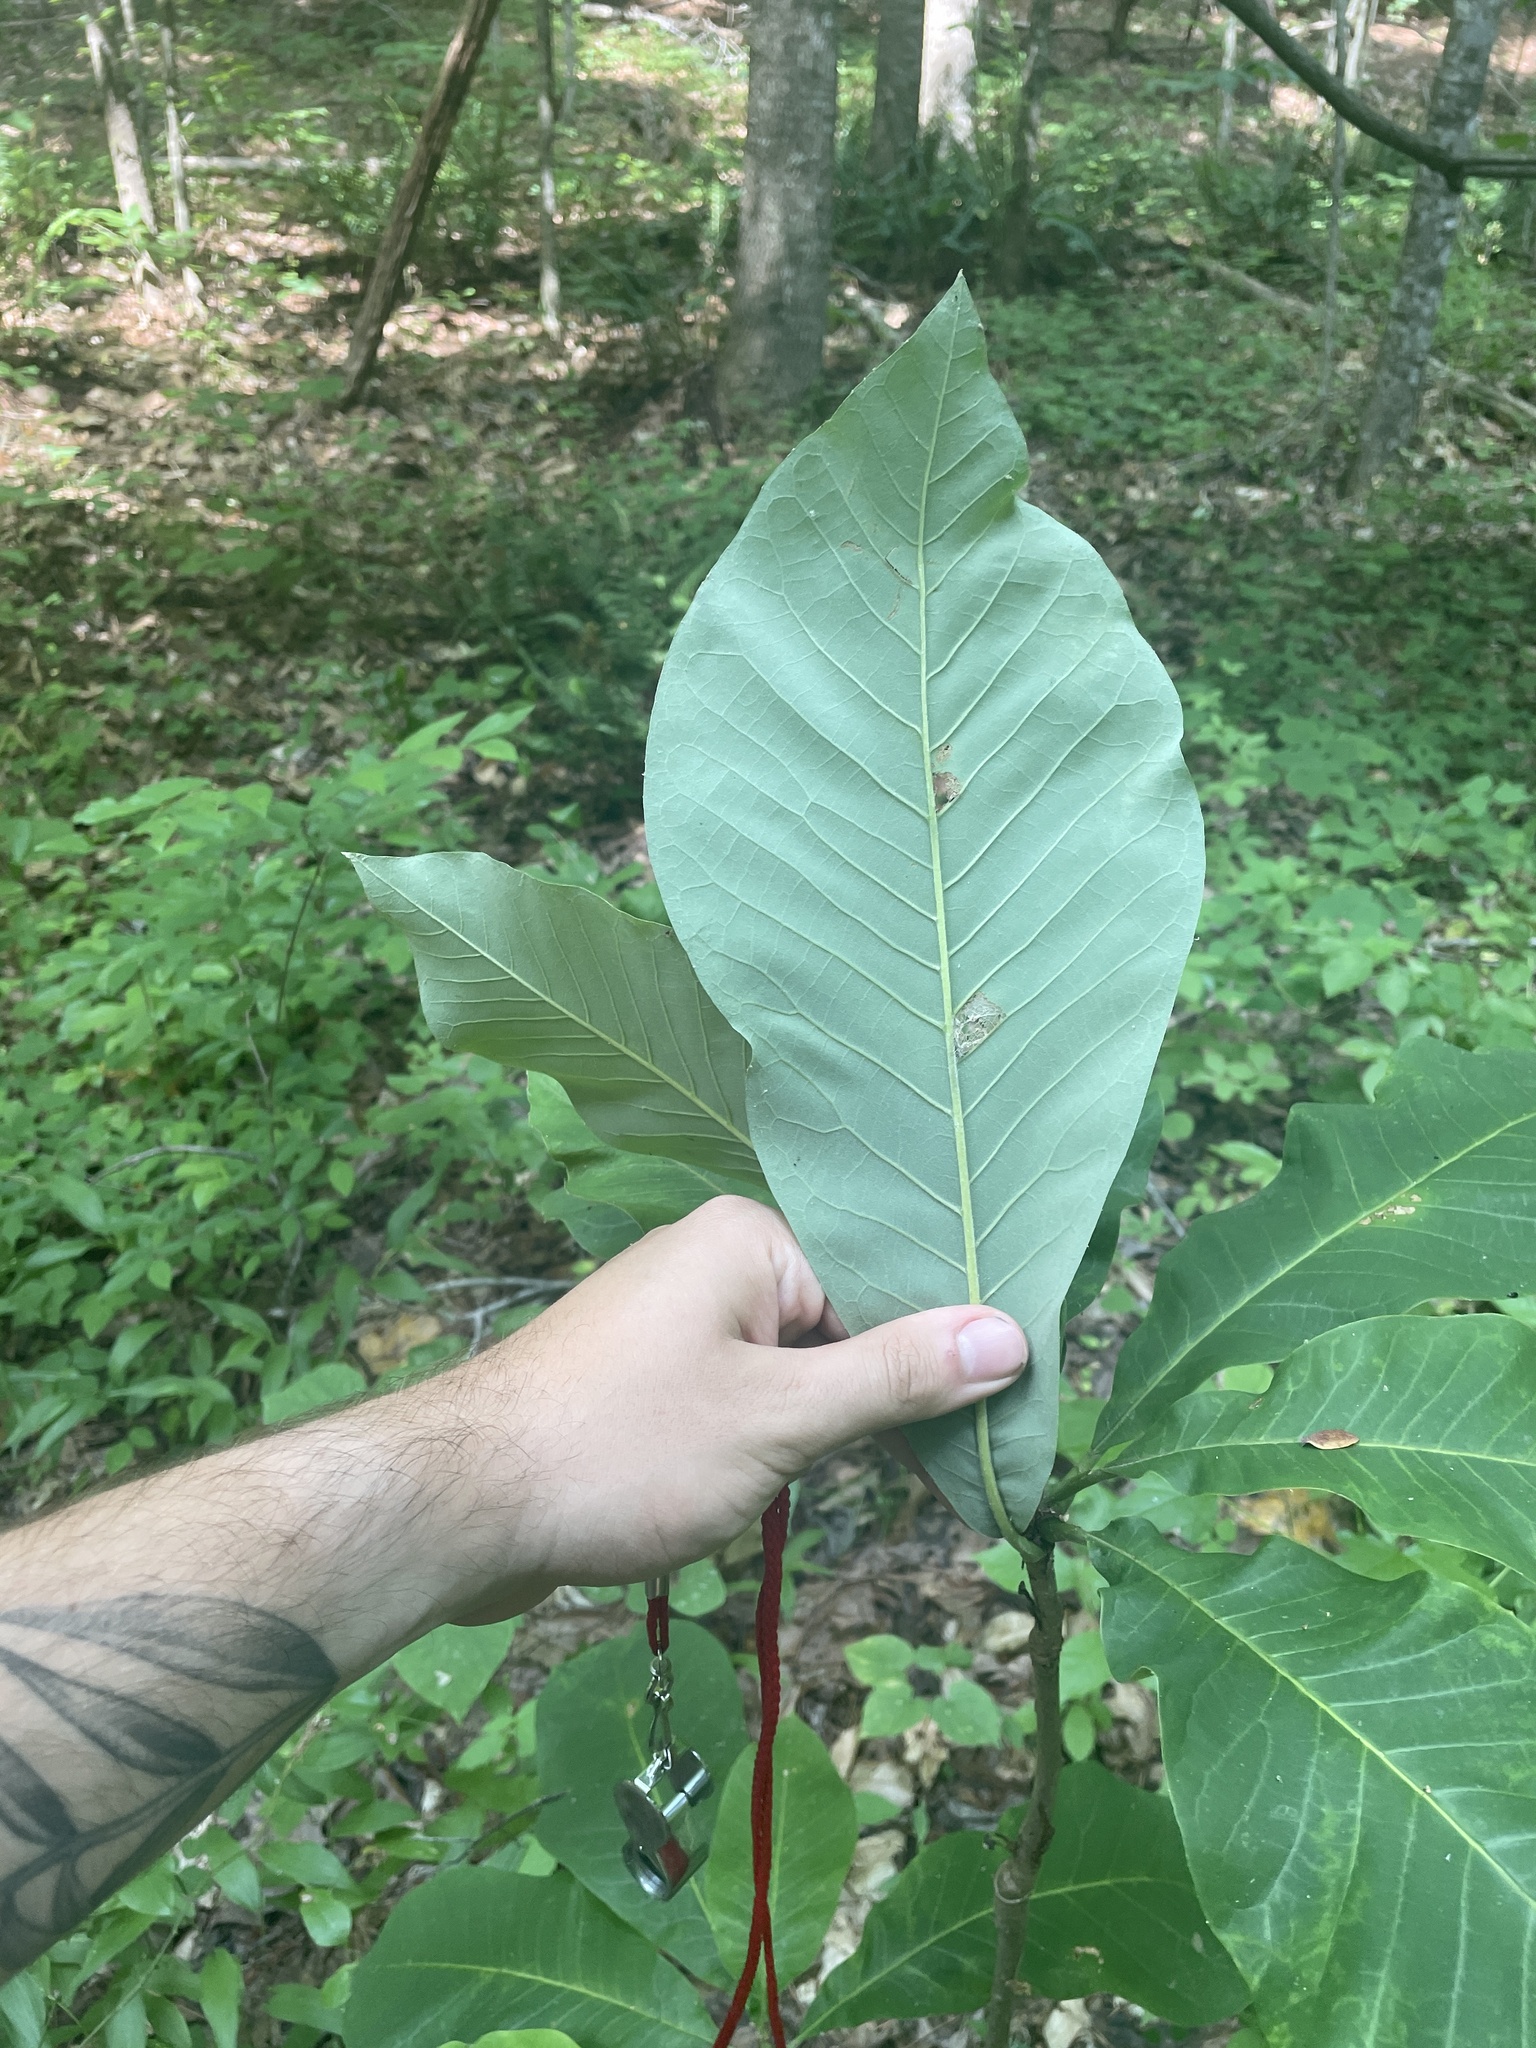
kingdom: Plantae
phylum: Tracheophyta
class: Magnoliopsida
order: Magnoliales
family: Magnoliaceae
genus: Magnolia
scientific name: Magnolia tripetala
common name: Umbrella magnolia
